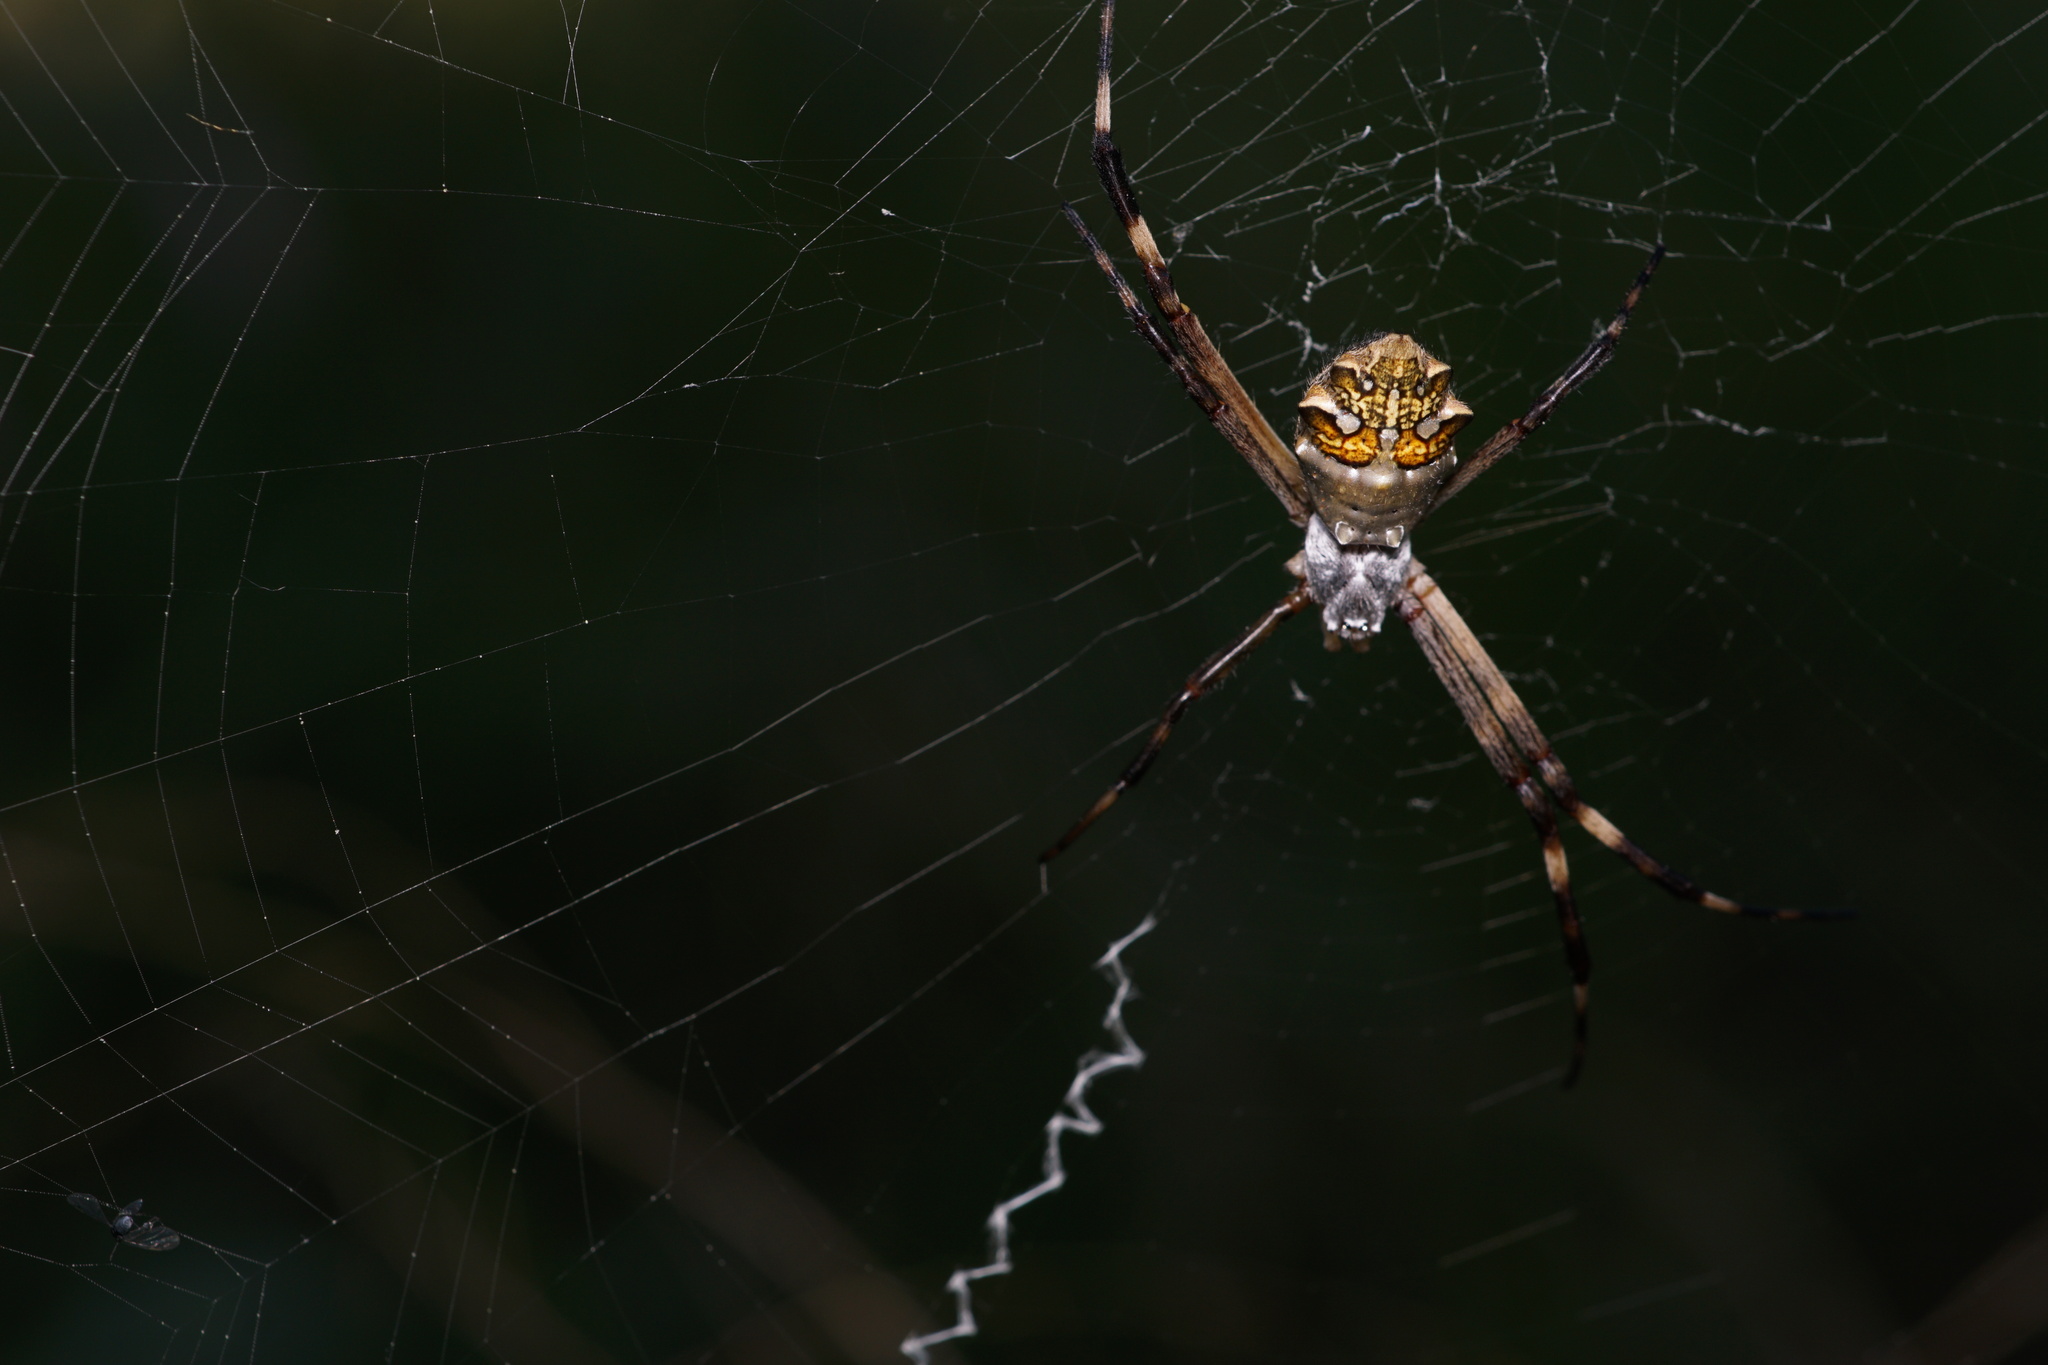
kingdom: Animalia
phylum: Arthropoda
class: Arachnida
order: Araneae
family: Araneidae
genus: Argiope
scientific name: Argiope argentata
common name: Orb weavers
